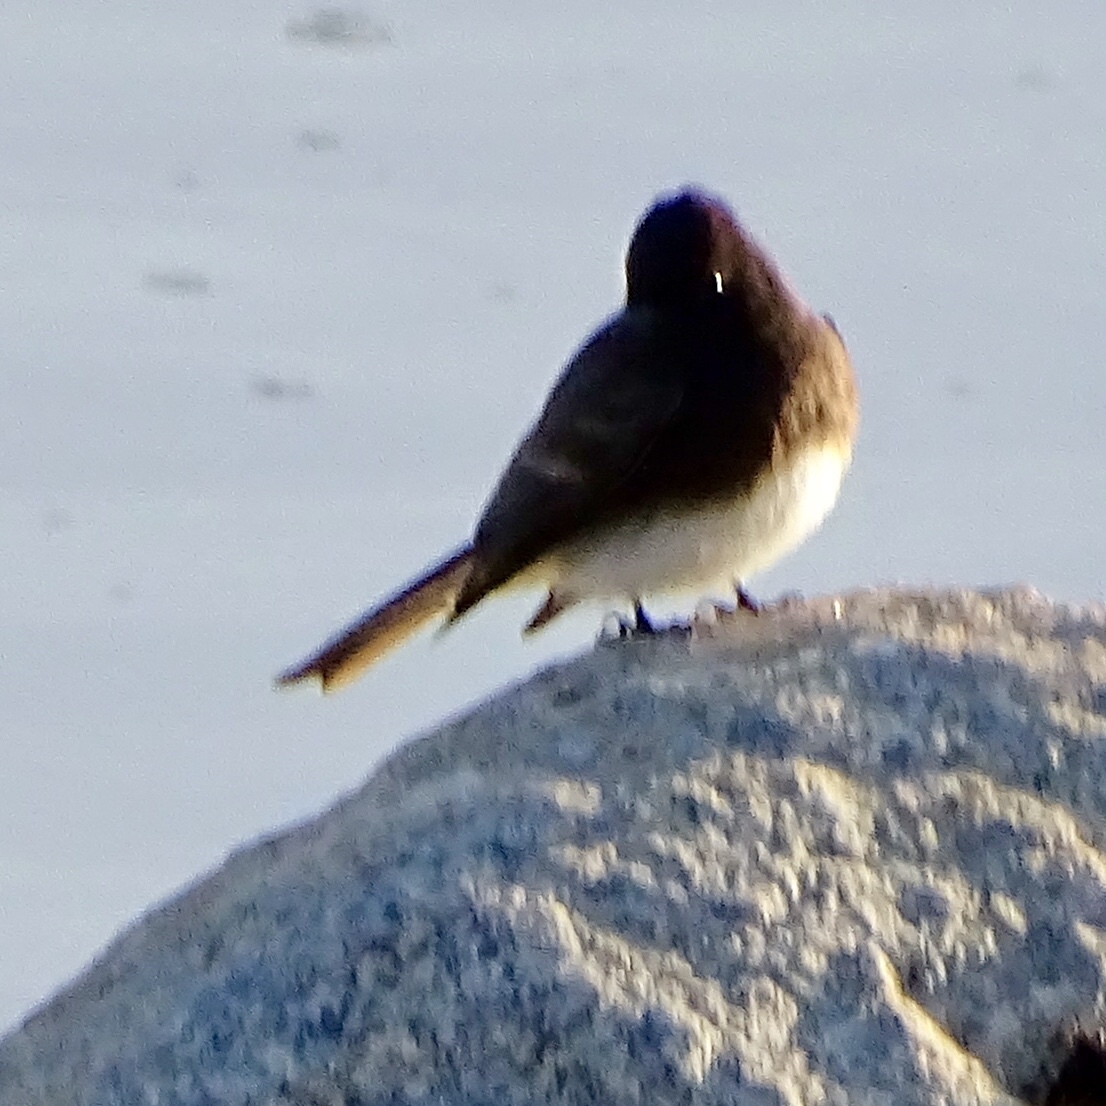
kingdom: Animalia
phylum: Chordata
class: Aves
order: Passeriformes
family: Tyrannidae
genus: Sayornis
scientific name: Sayornis nigricans
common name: Black phoebe
